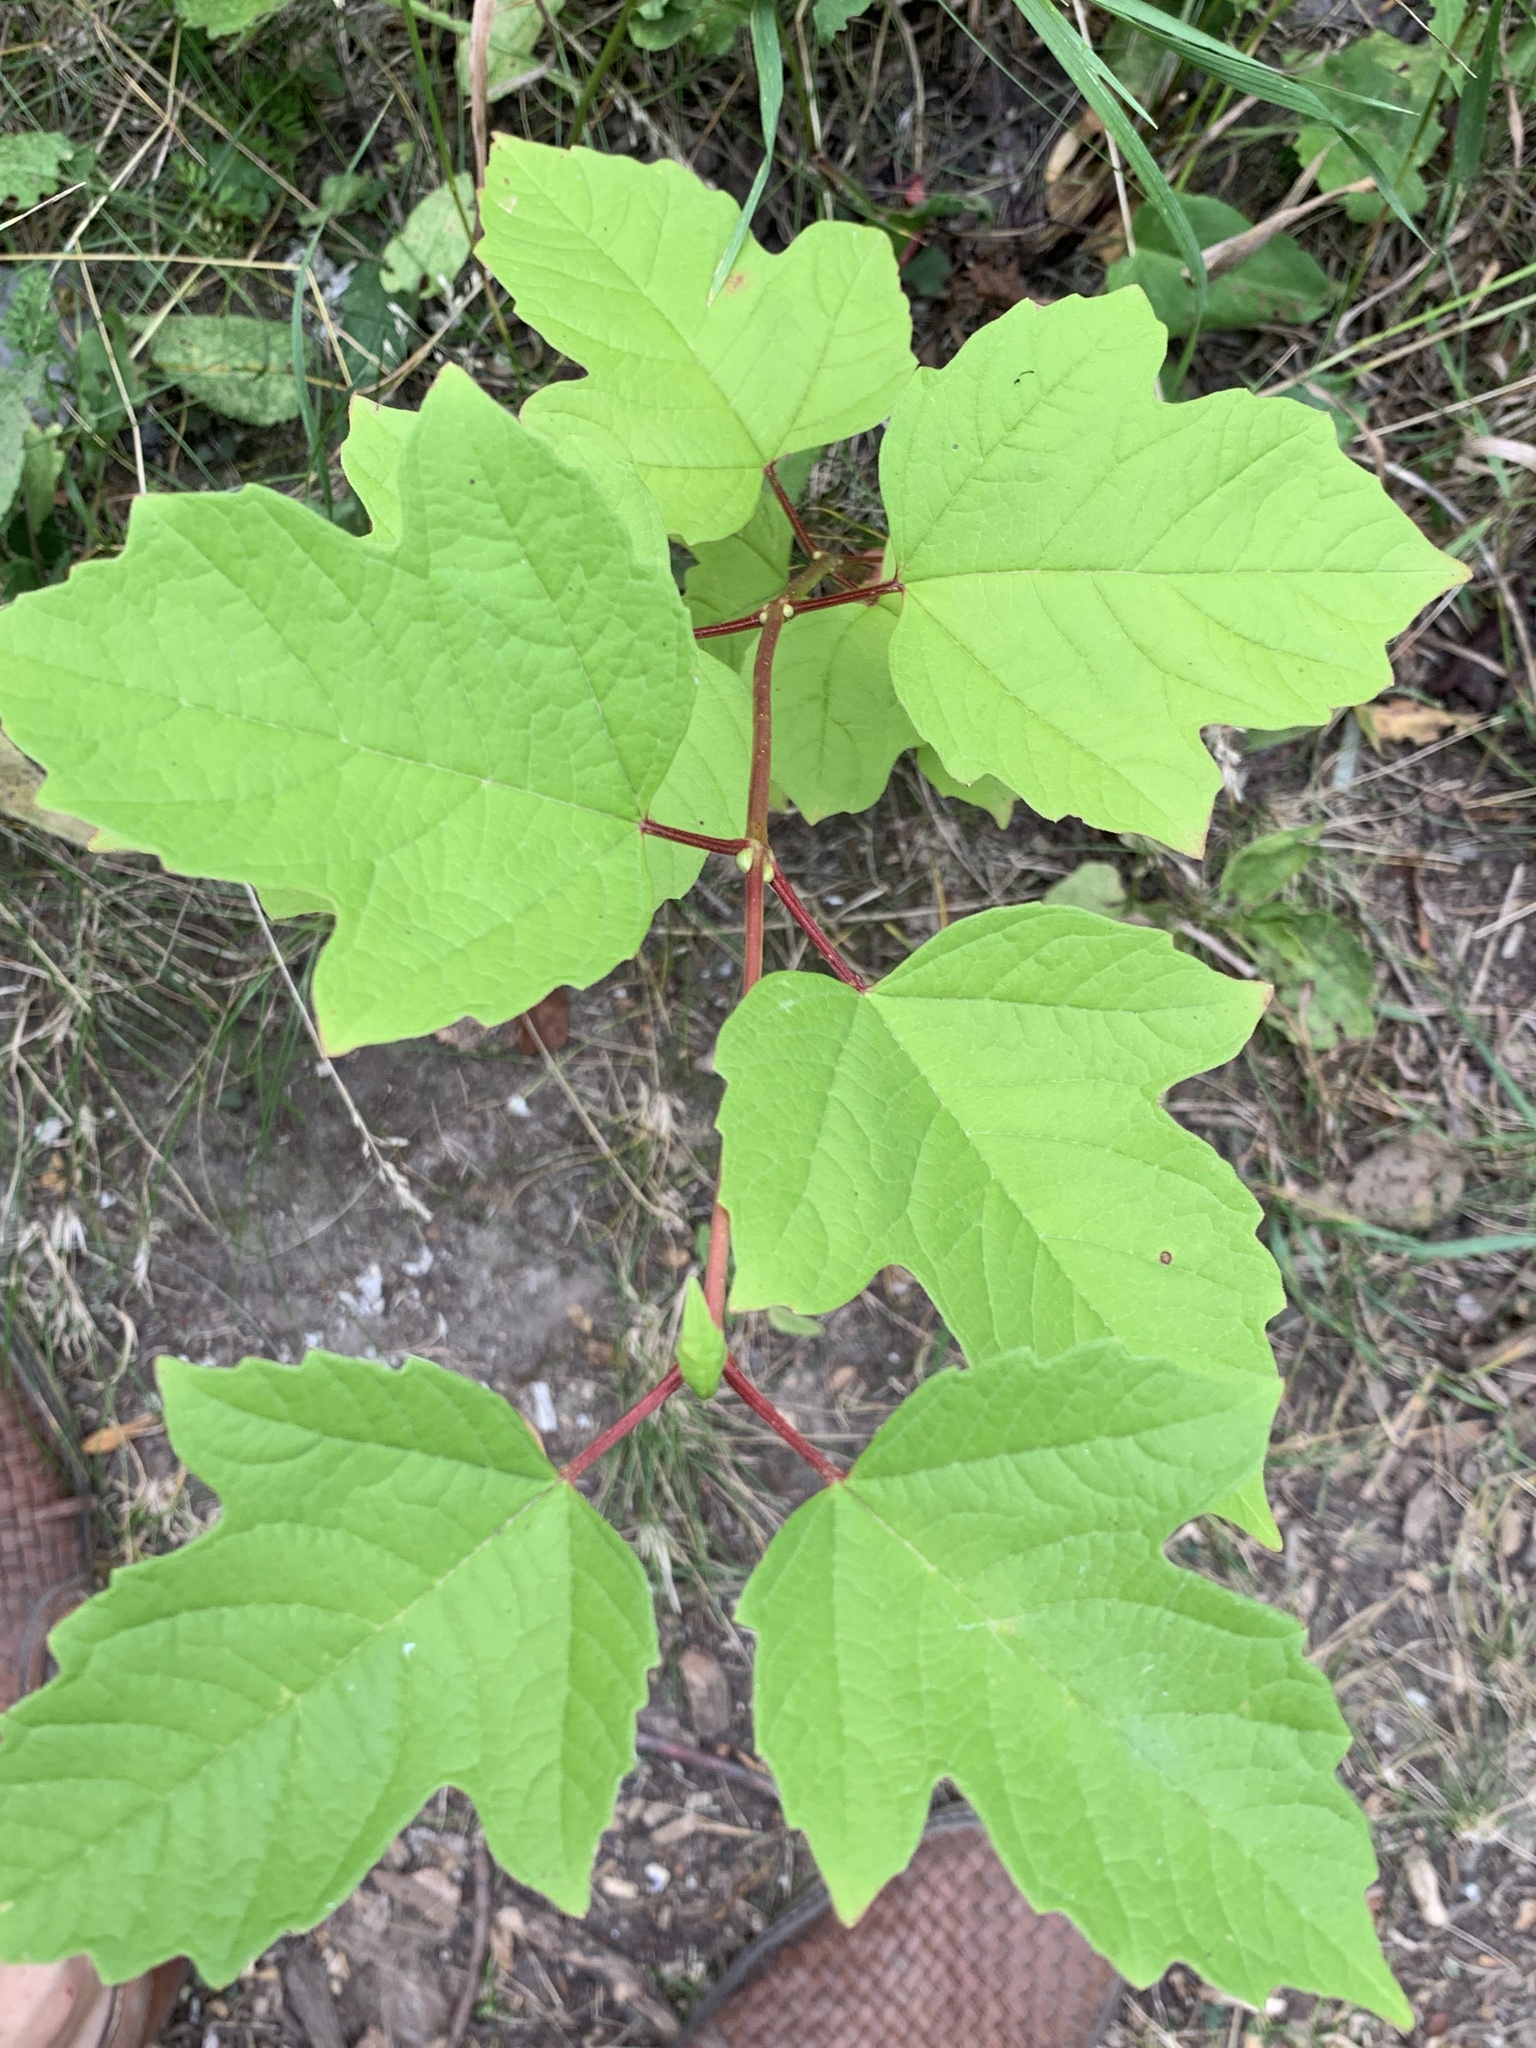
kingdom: Plantae
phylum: Tracheophyta
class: Magnoliopsida
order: Dipsacales
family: Viburnaceae
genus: Viburnum
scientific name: Viburnum opulus
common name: Guelder-rose
